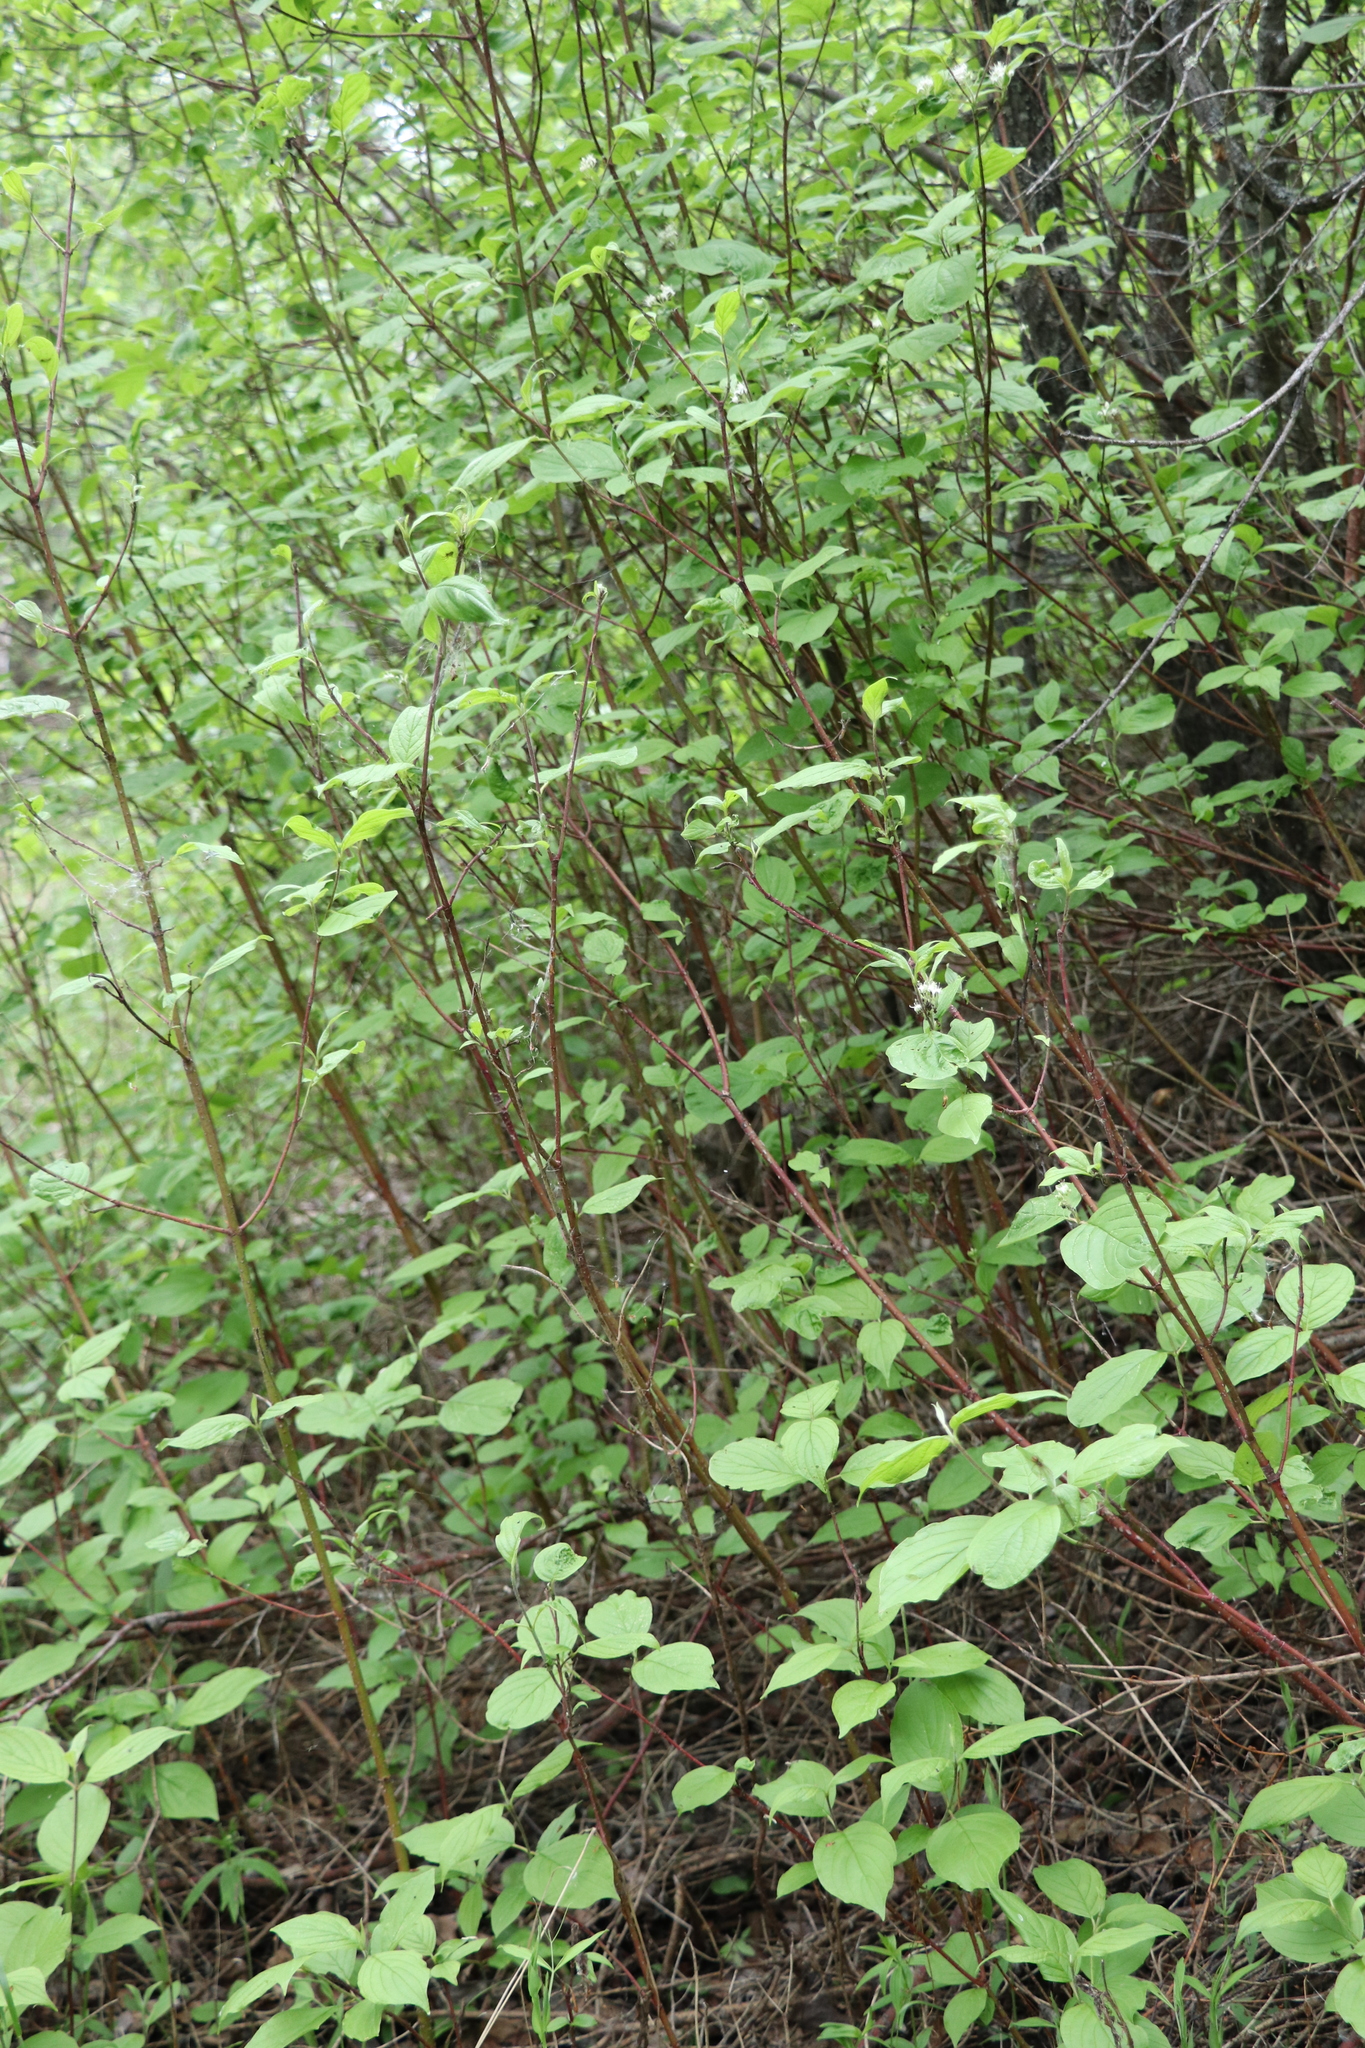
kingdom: Plantae
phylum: Tracheophyta
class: Magnoliopsida
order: Cornales
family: Cornaceae
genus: Cornus
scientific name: Cornus alba
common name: White dogwood
